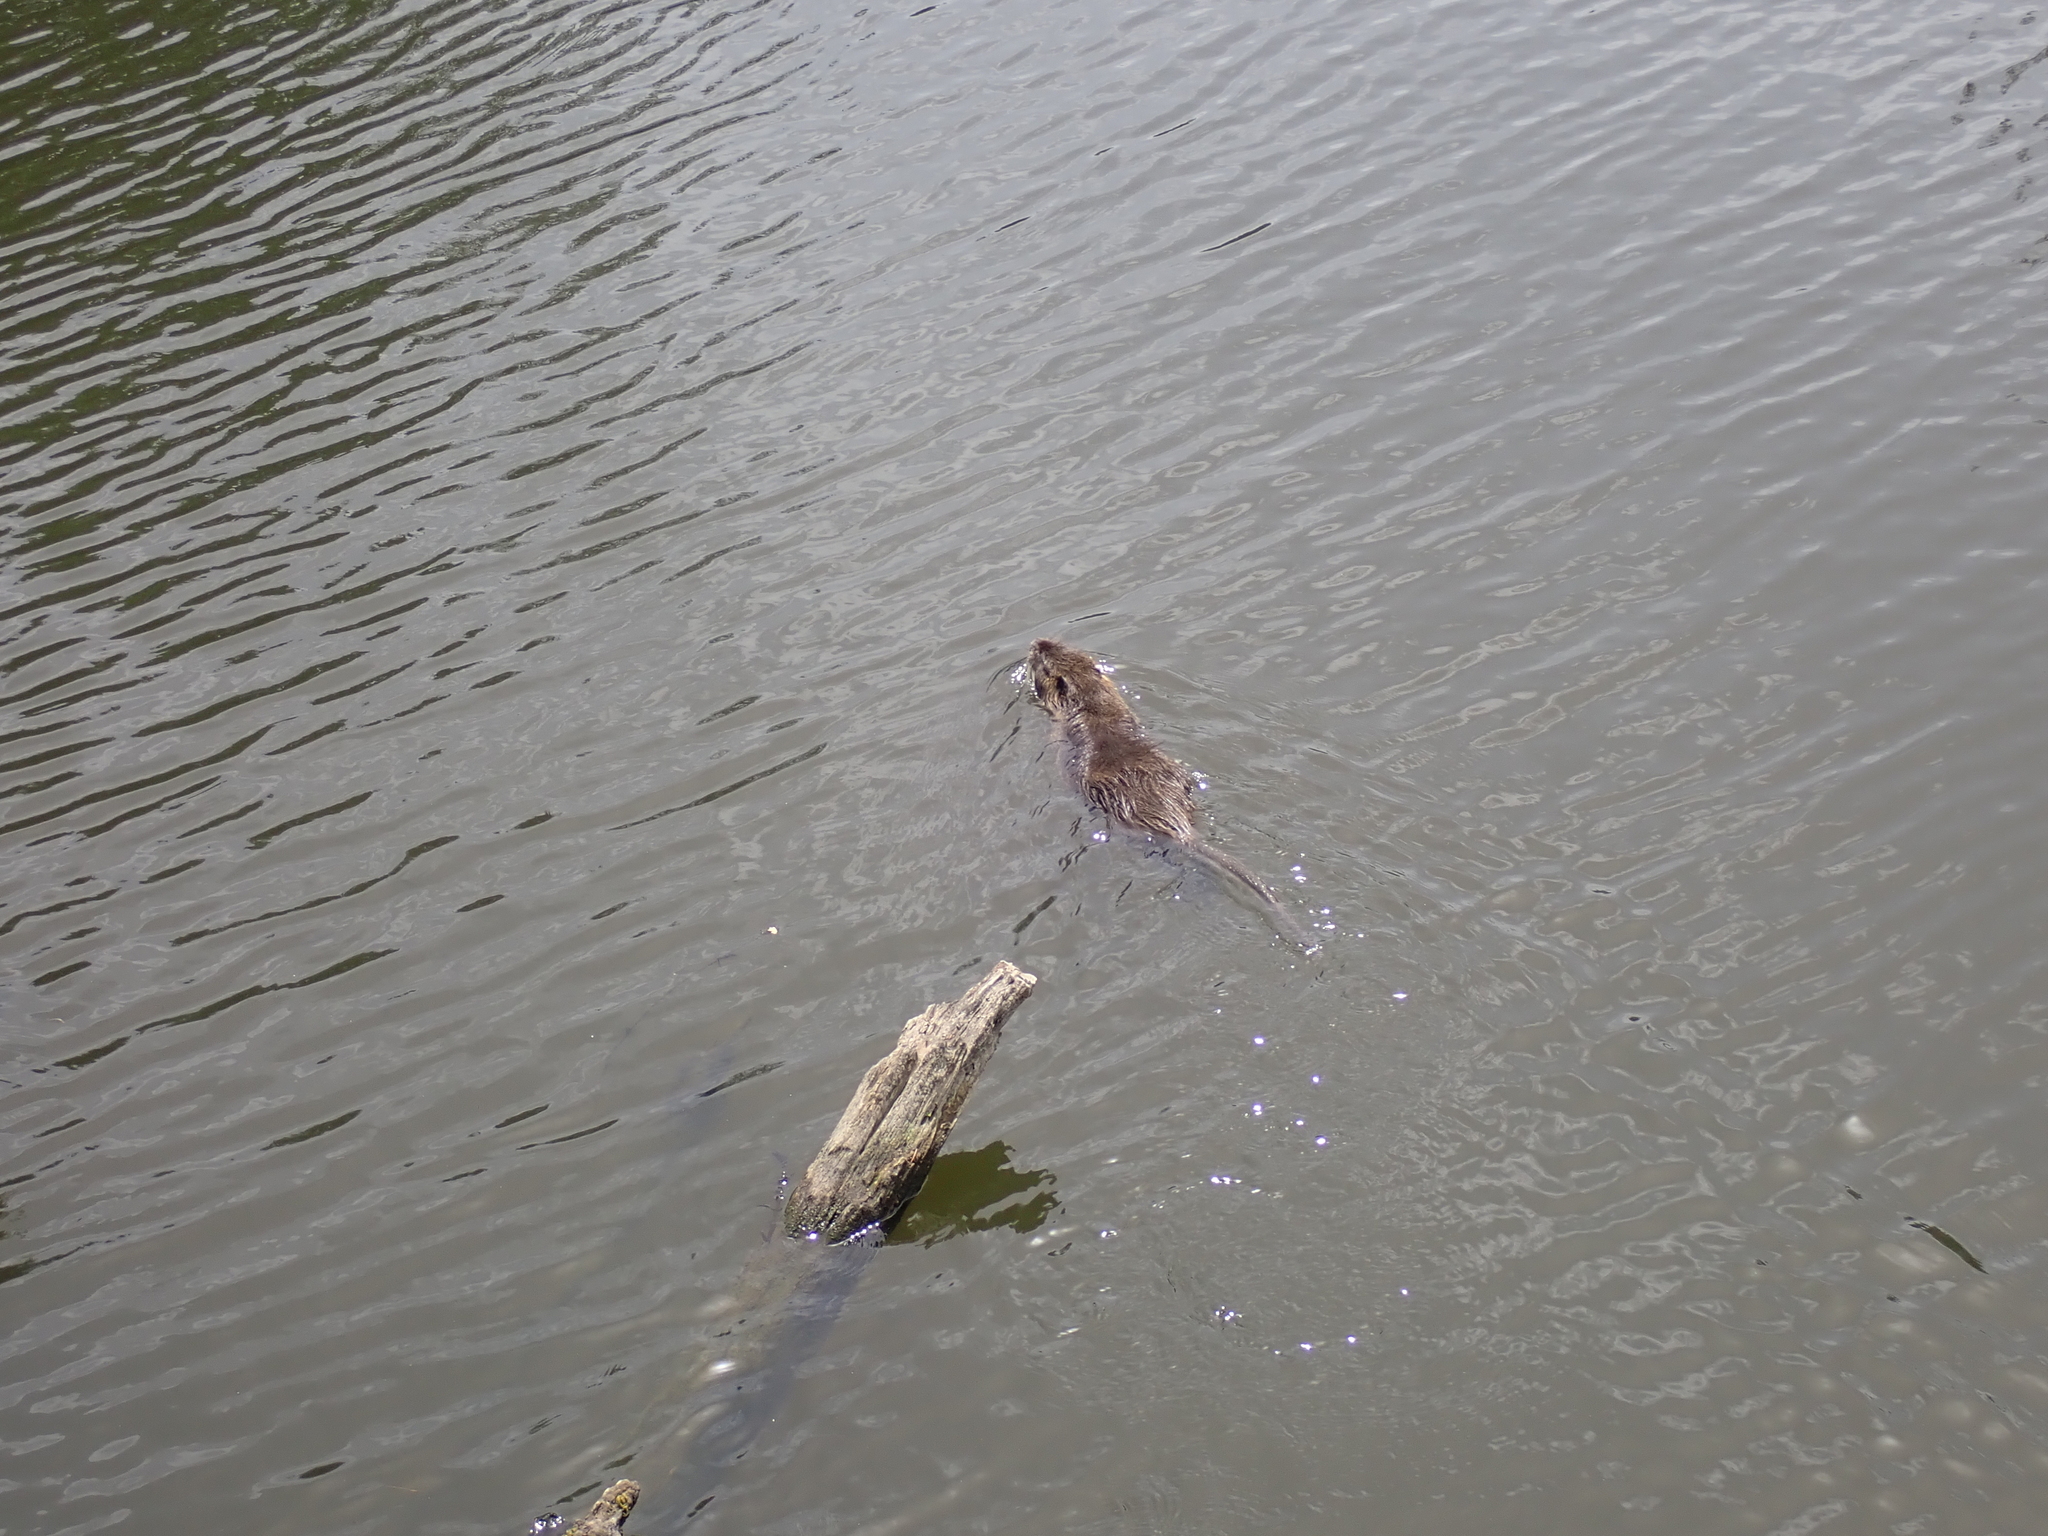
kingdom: Animalia
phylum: Chordata
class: Mammalia
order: Rodentia
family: Myocastoridae
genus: Myocastor
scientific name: Myocastor coypus
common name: Coypu
